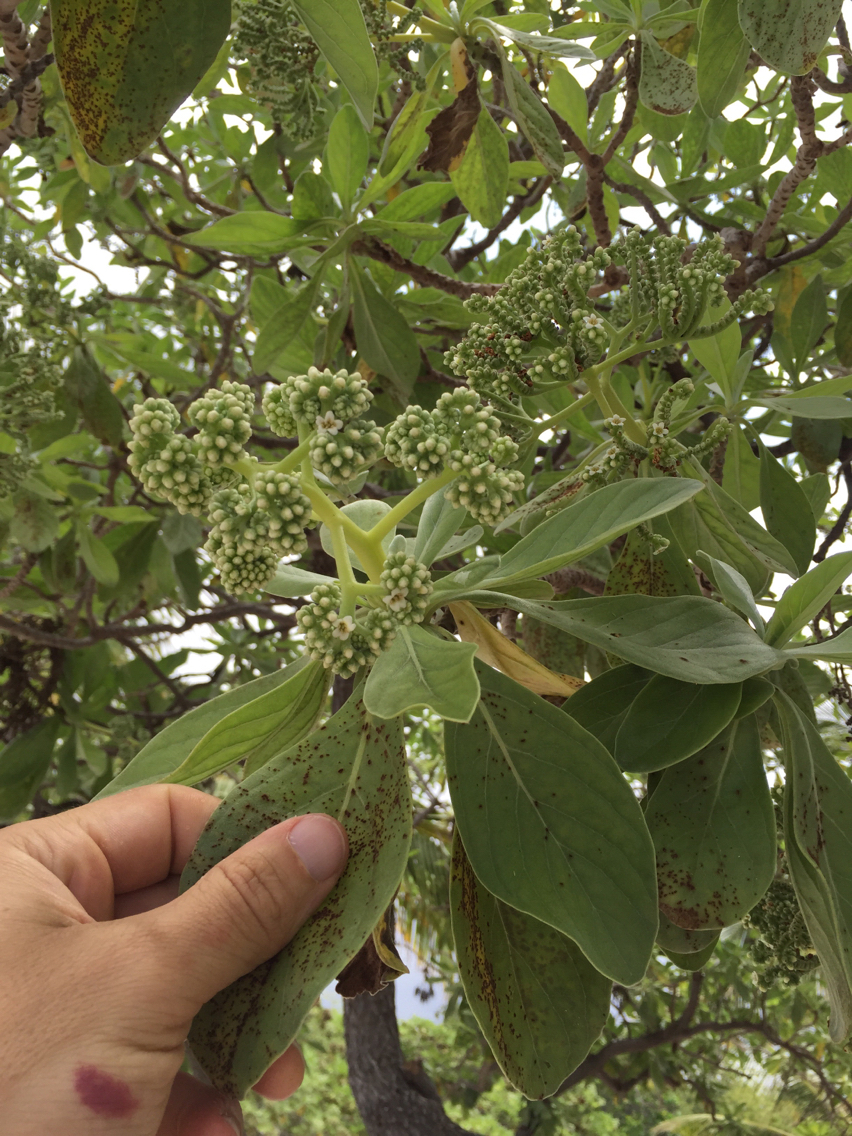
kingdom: Plantae
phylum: Tracheophyta
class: Magnoliopsida
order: Boraginales
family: Heliotropiaceae
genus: Heliotropium
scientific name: Heliotropium velutinum
